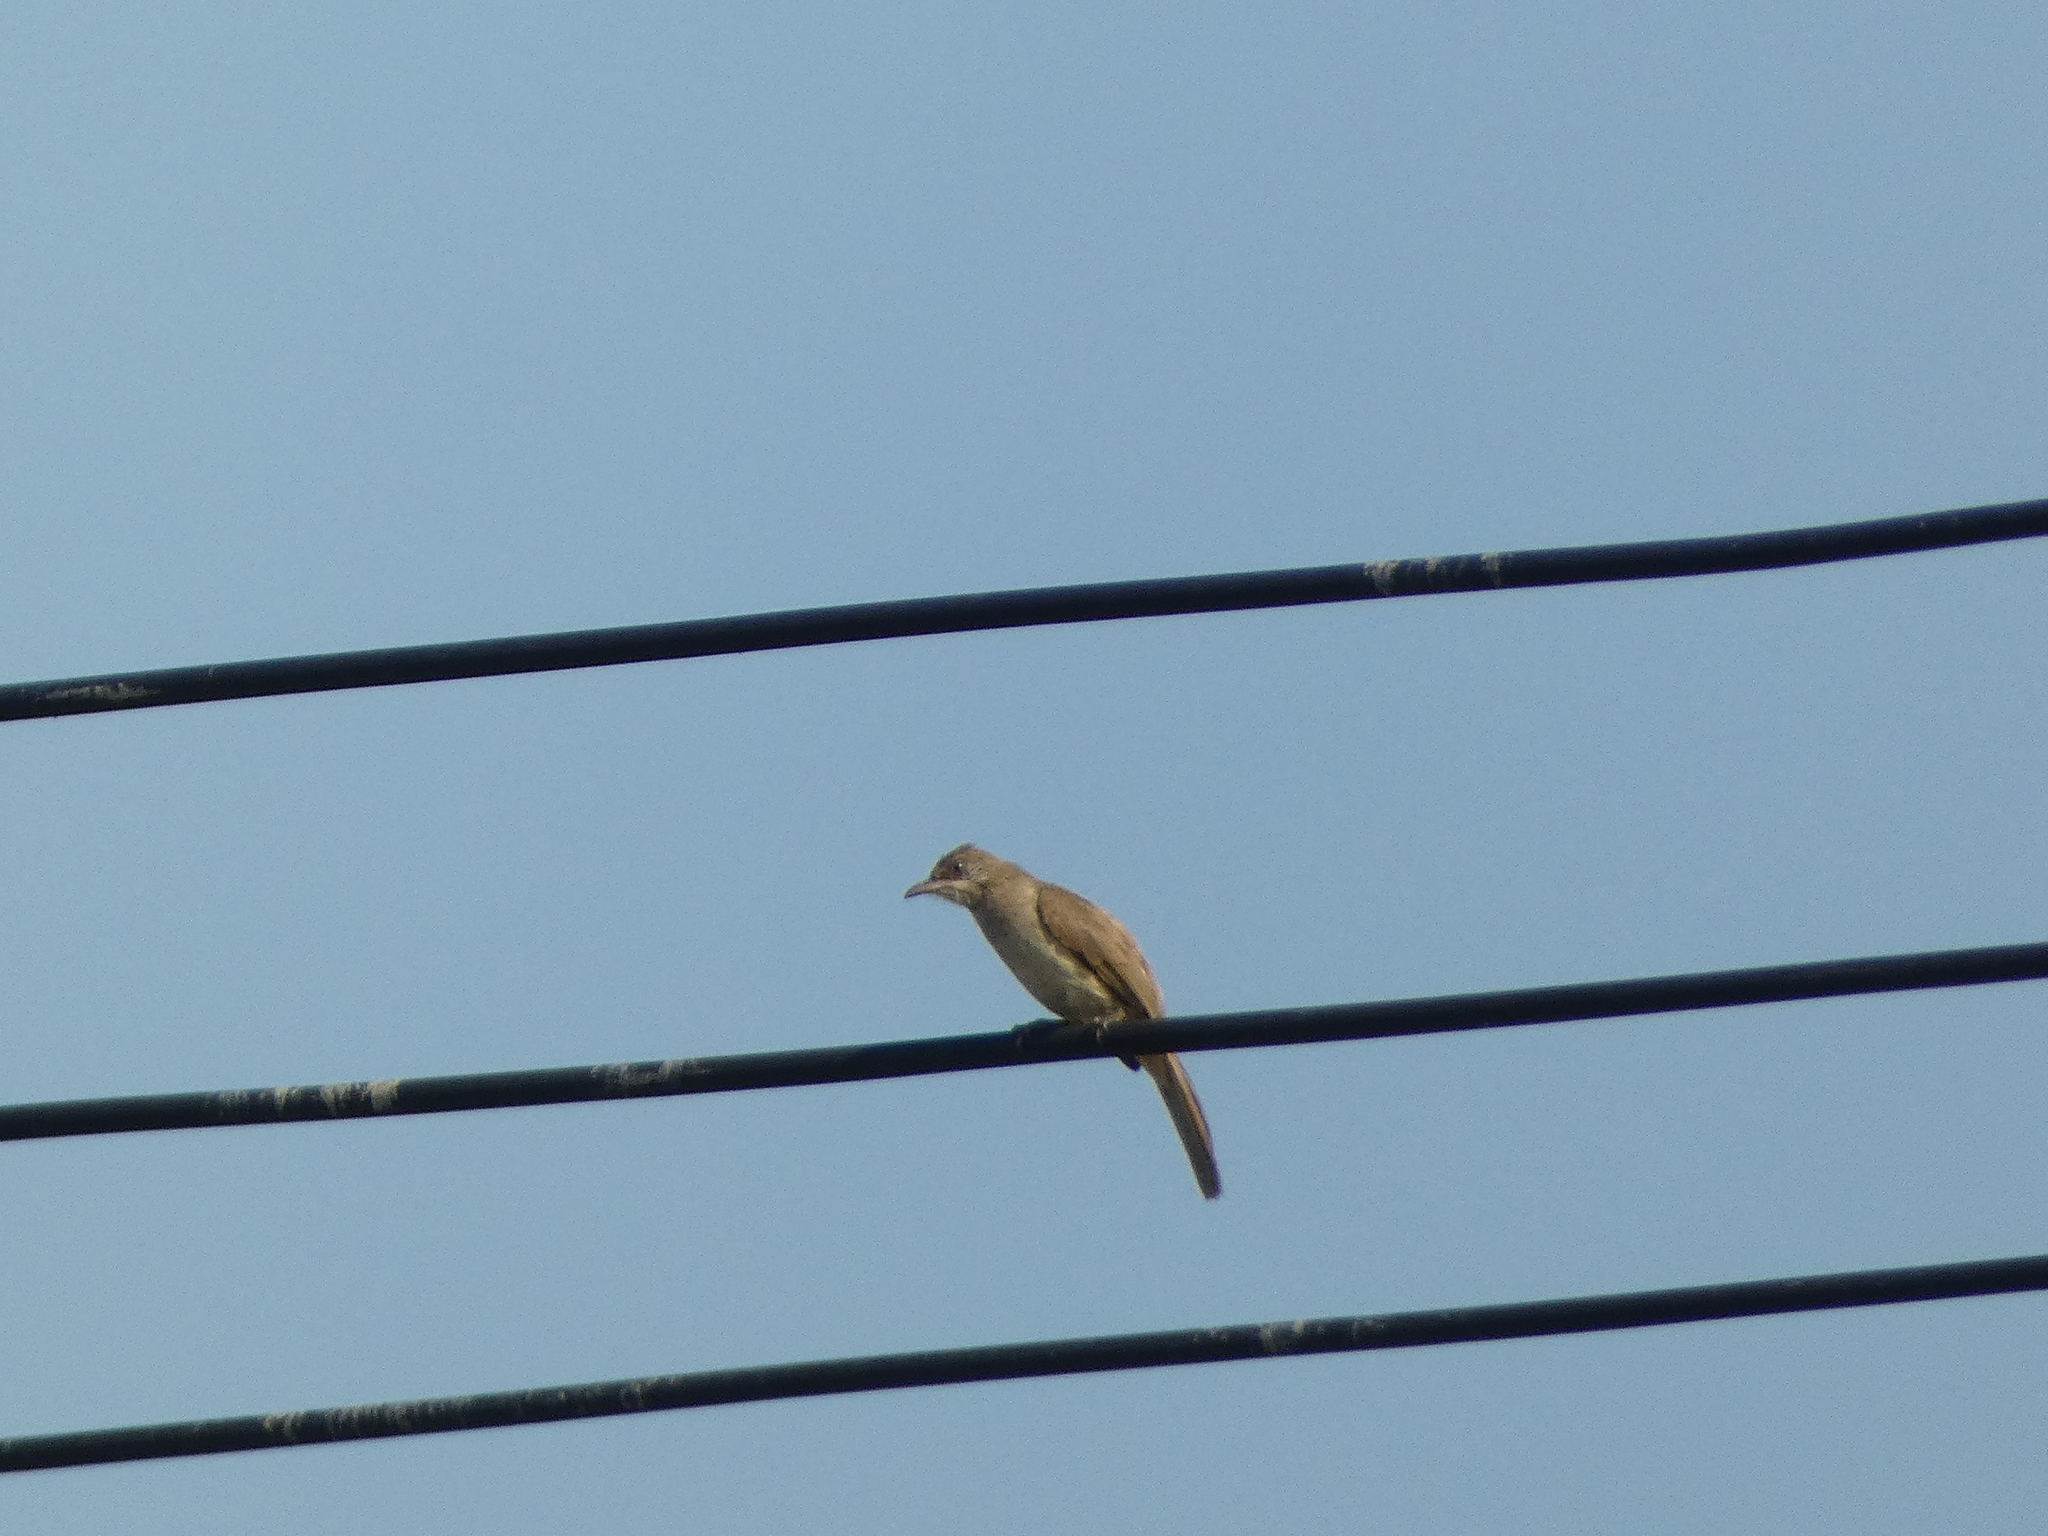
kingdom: Animalia
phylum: Chordata
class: Aves
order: Passeriformes
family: Pycnonotidae
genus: Pycnonotus
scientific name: Pycnonotus blanfordi
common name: Streak-eared bulbul
